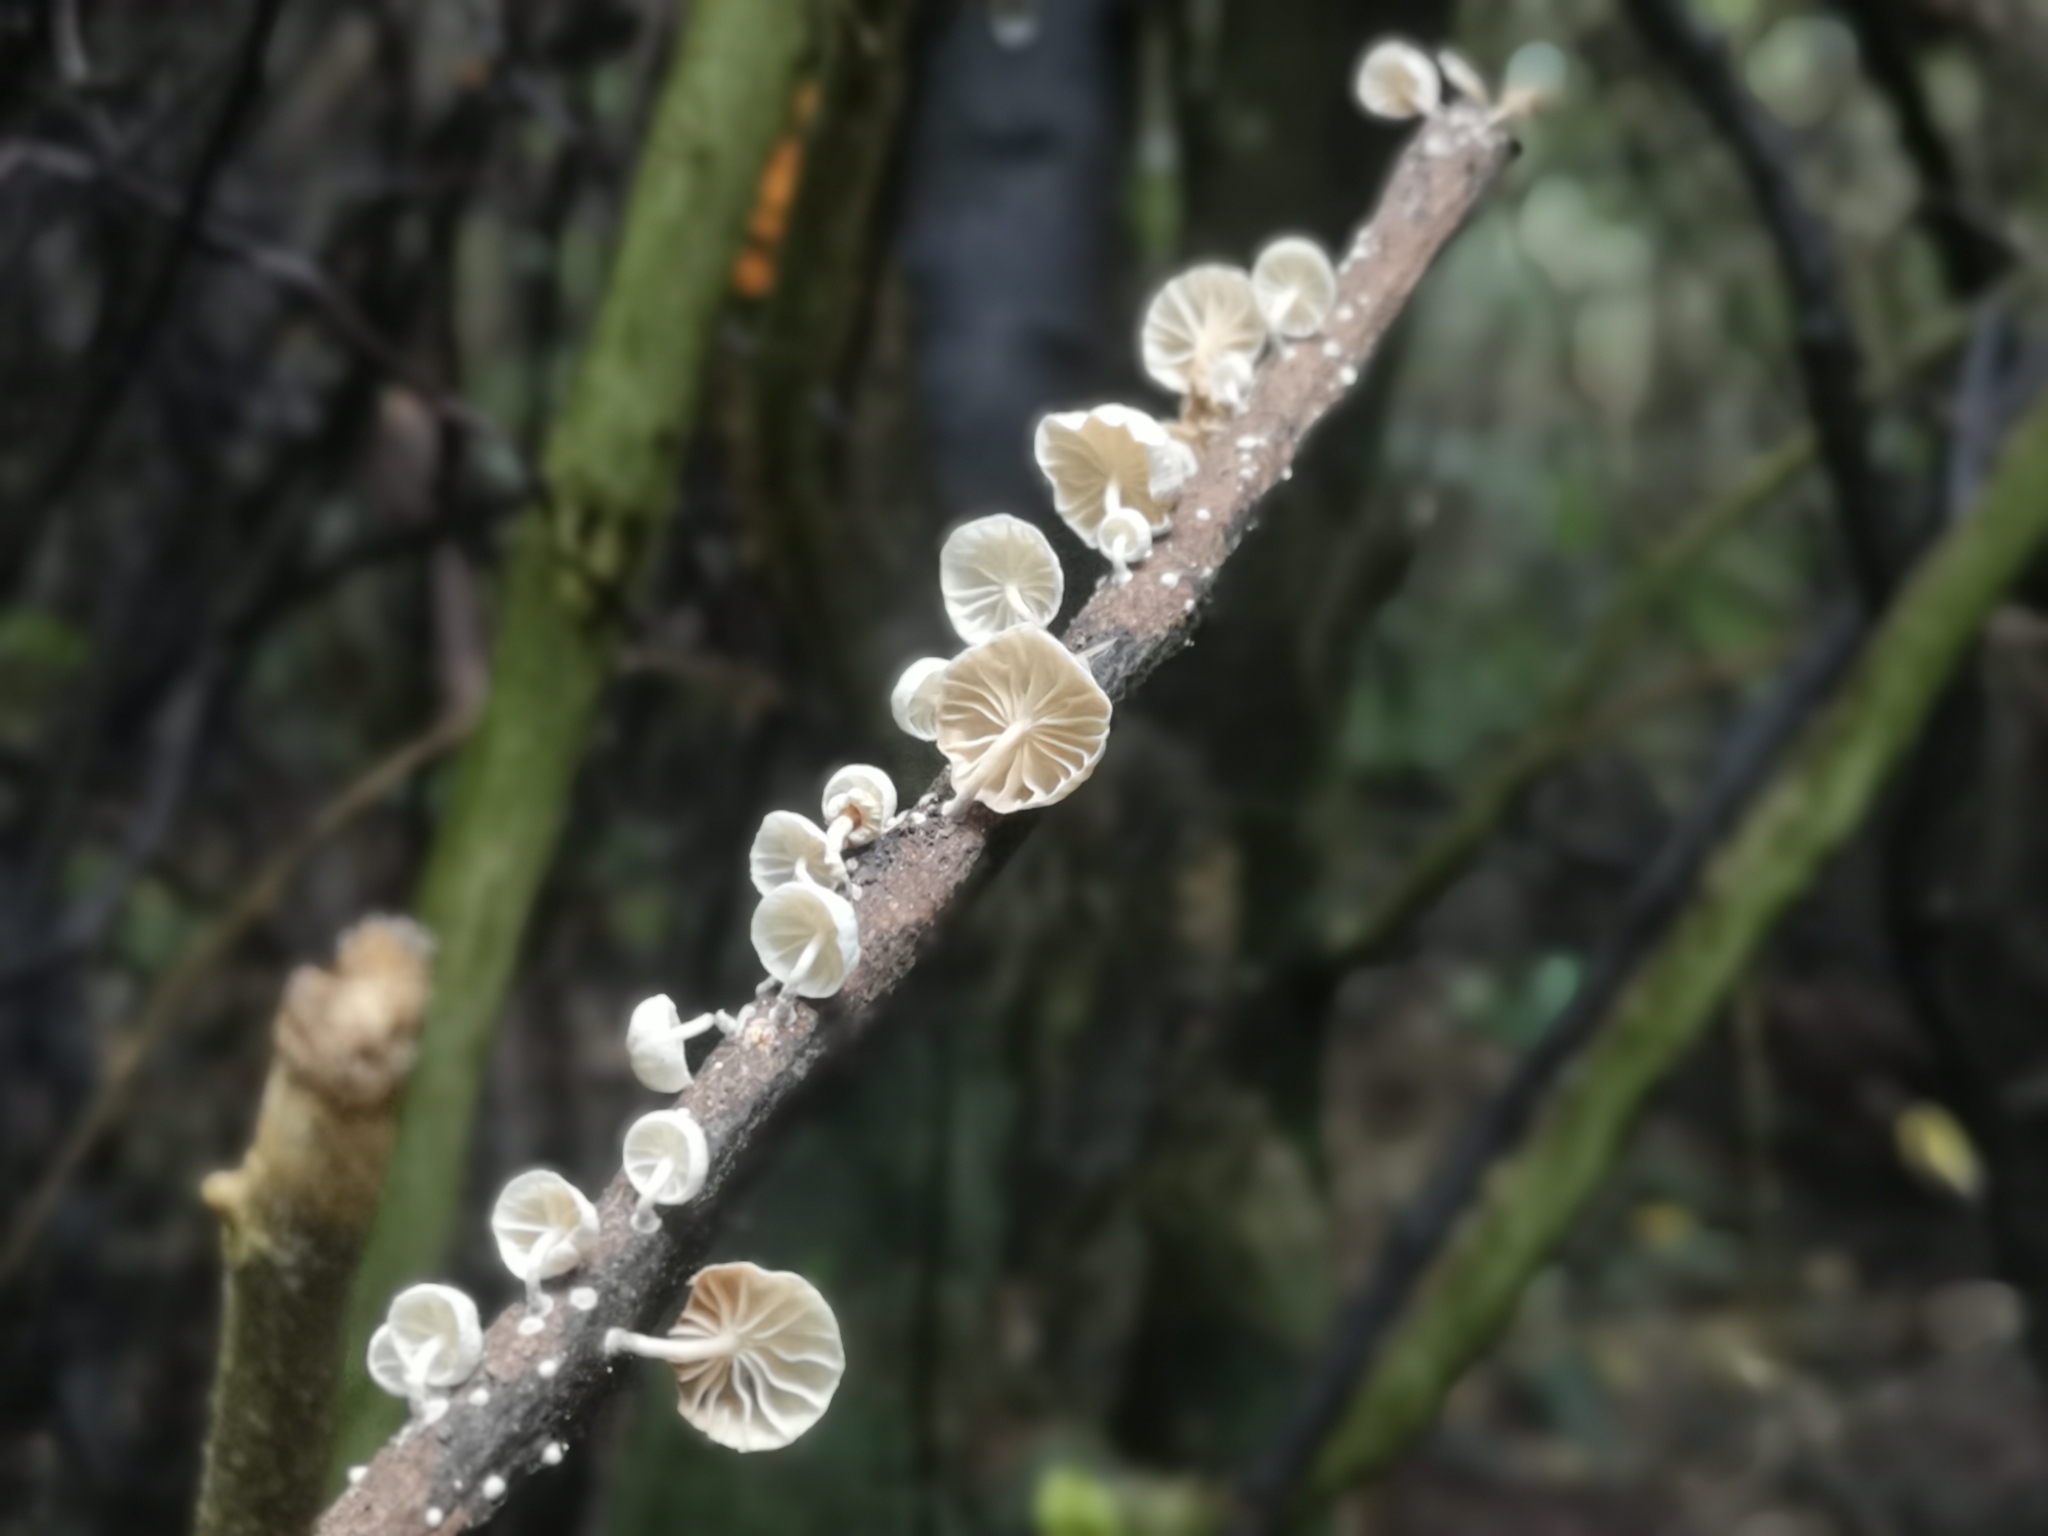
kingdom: Fungi
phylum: Basidiomycota
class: Agaricomycetes
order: Agaricales
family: Omphalotaceae
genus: Marasmiellus
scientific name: Marasmiellus candidus
